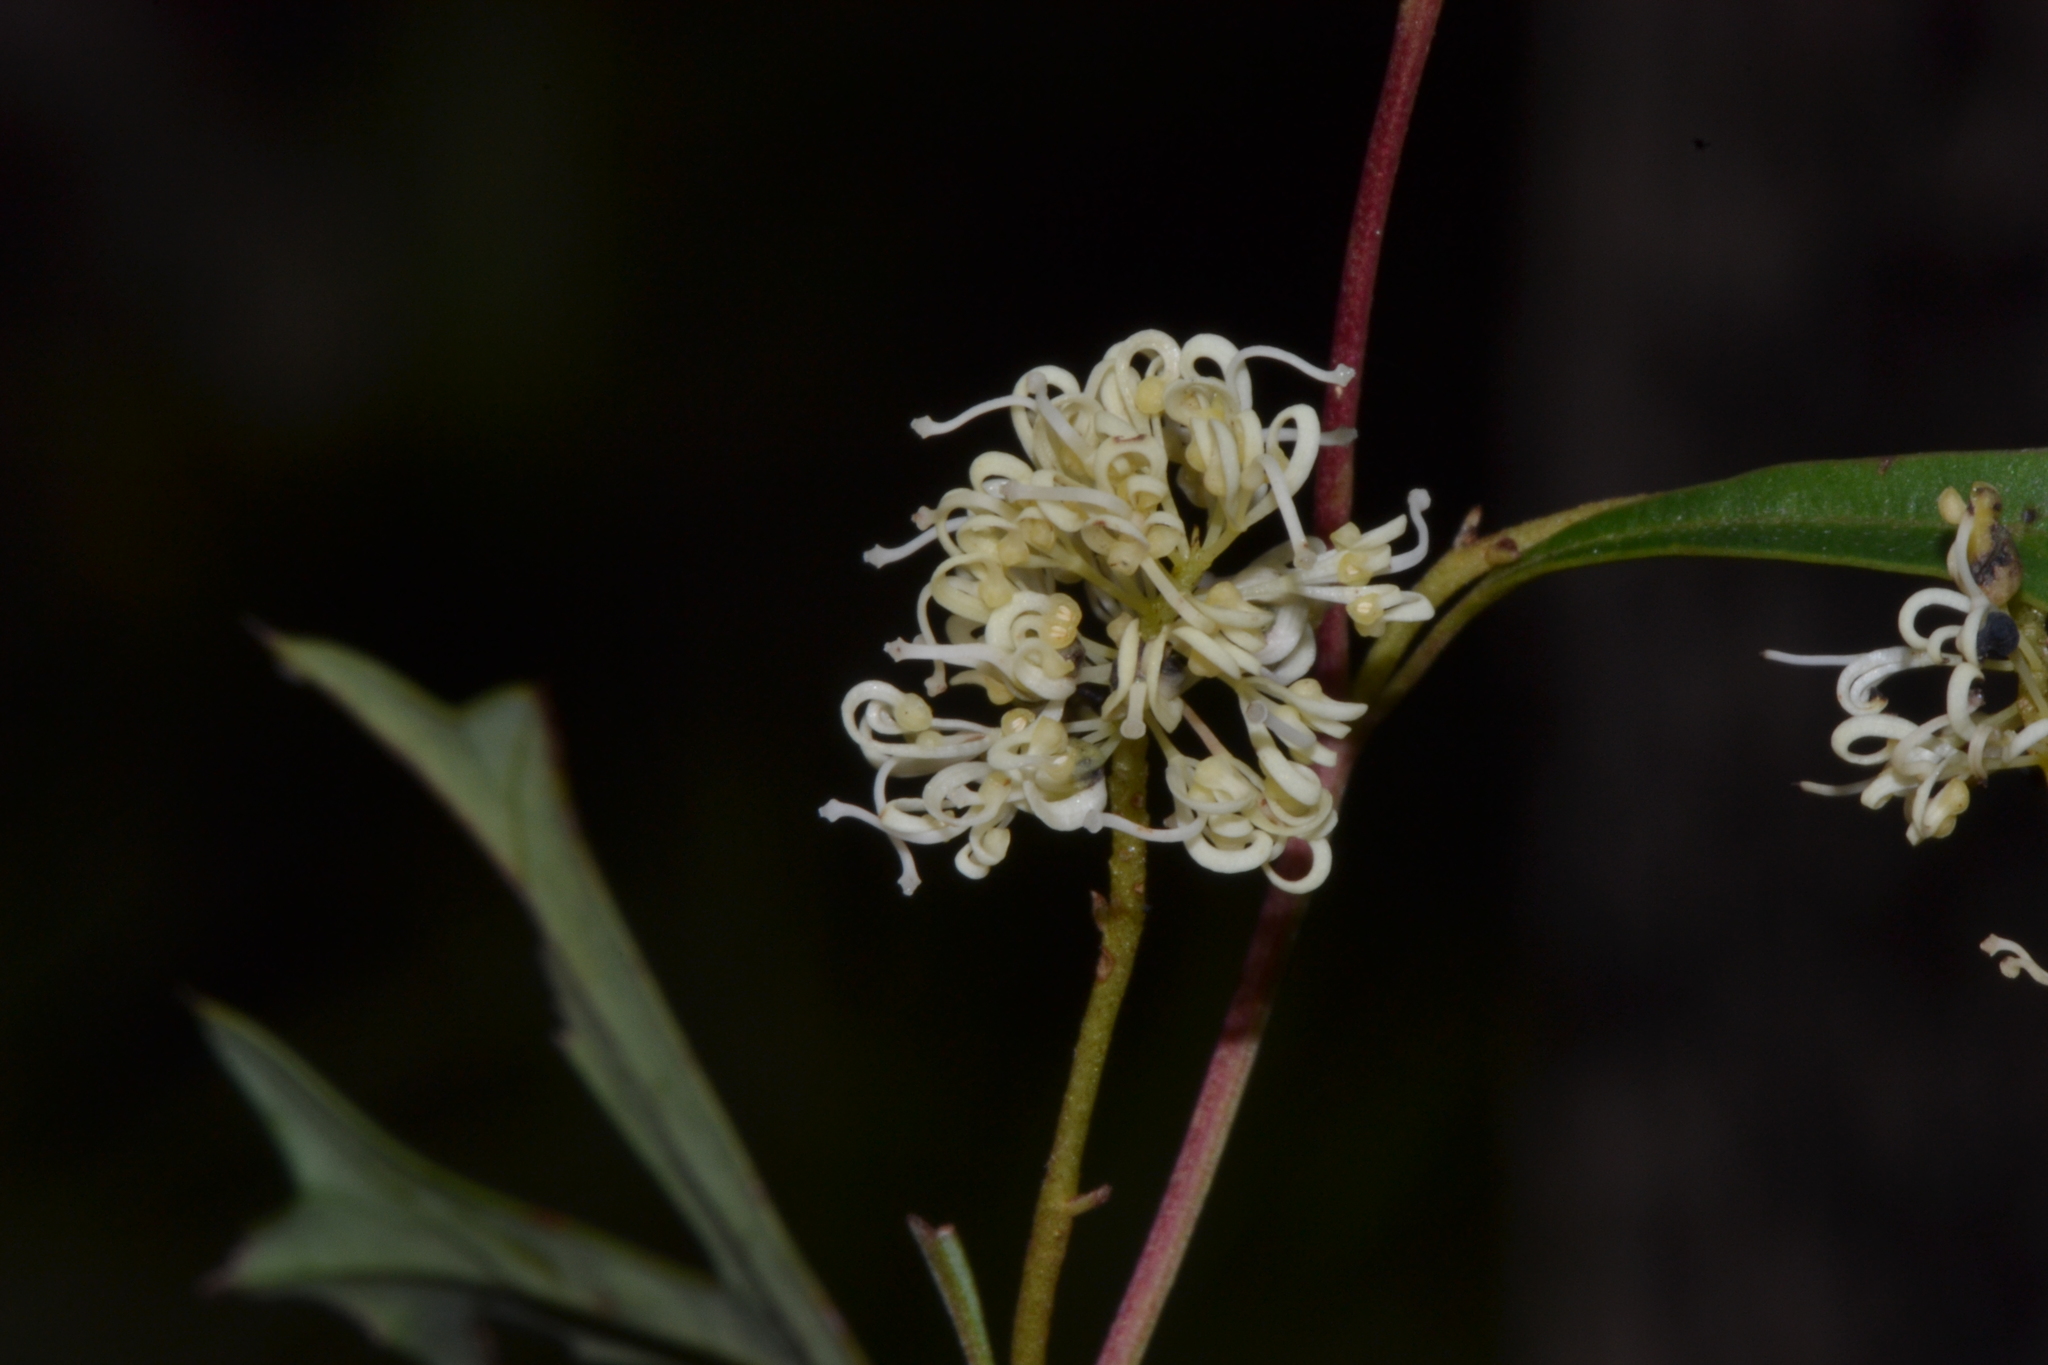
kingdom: Plantae
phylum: Tracheophyta
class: Magnoliopsida
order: Proteales
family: Proteaceae
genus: Grevillea
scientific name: Grevillea synaphea
